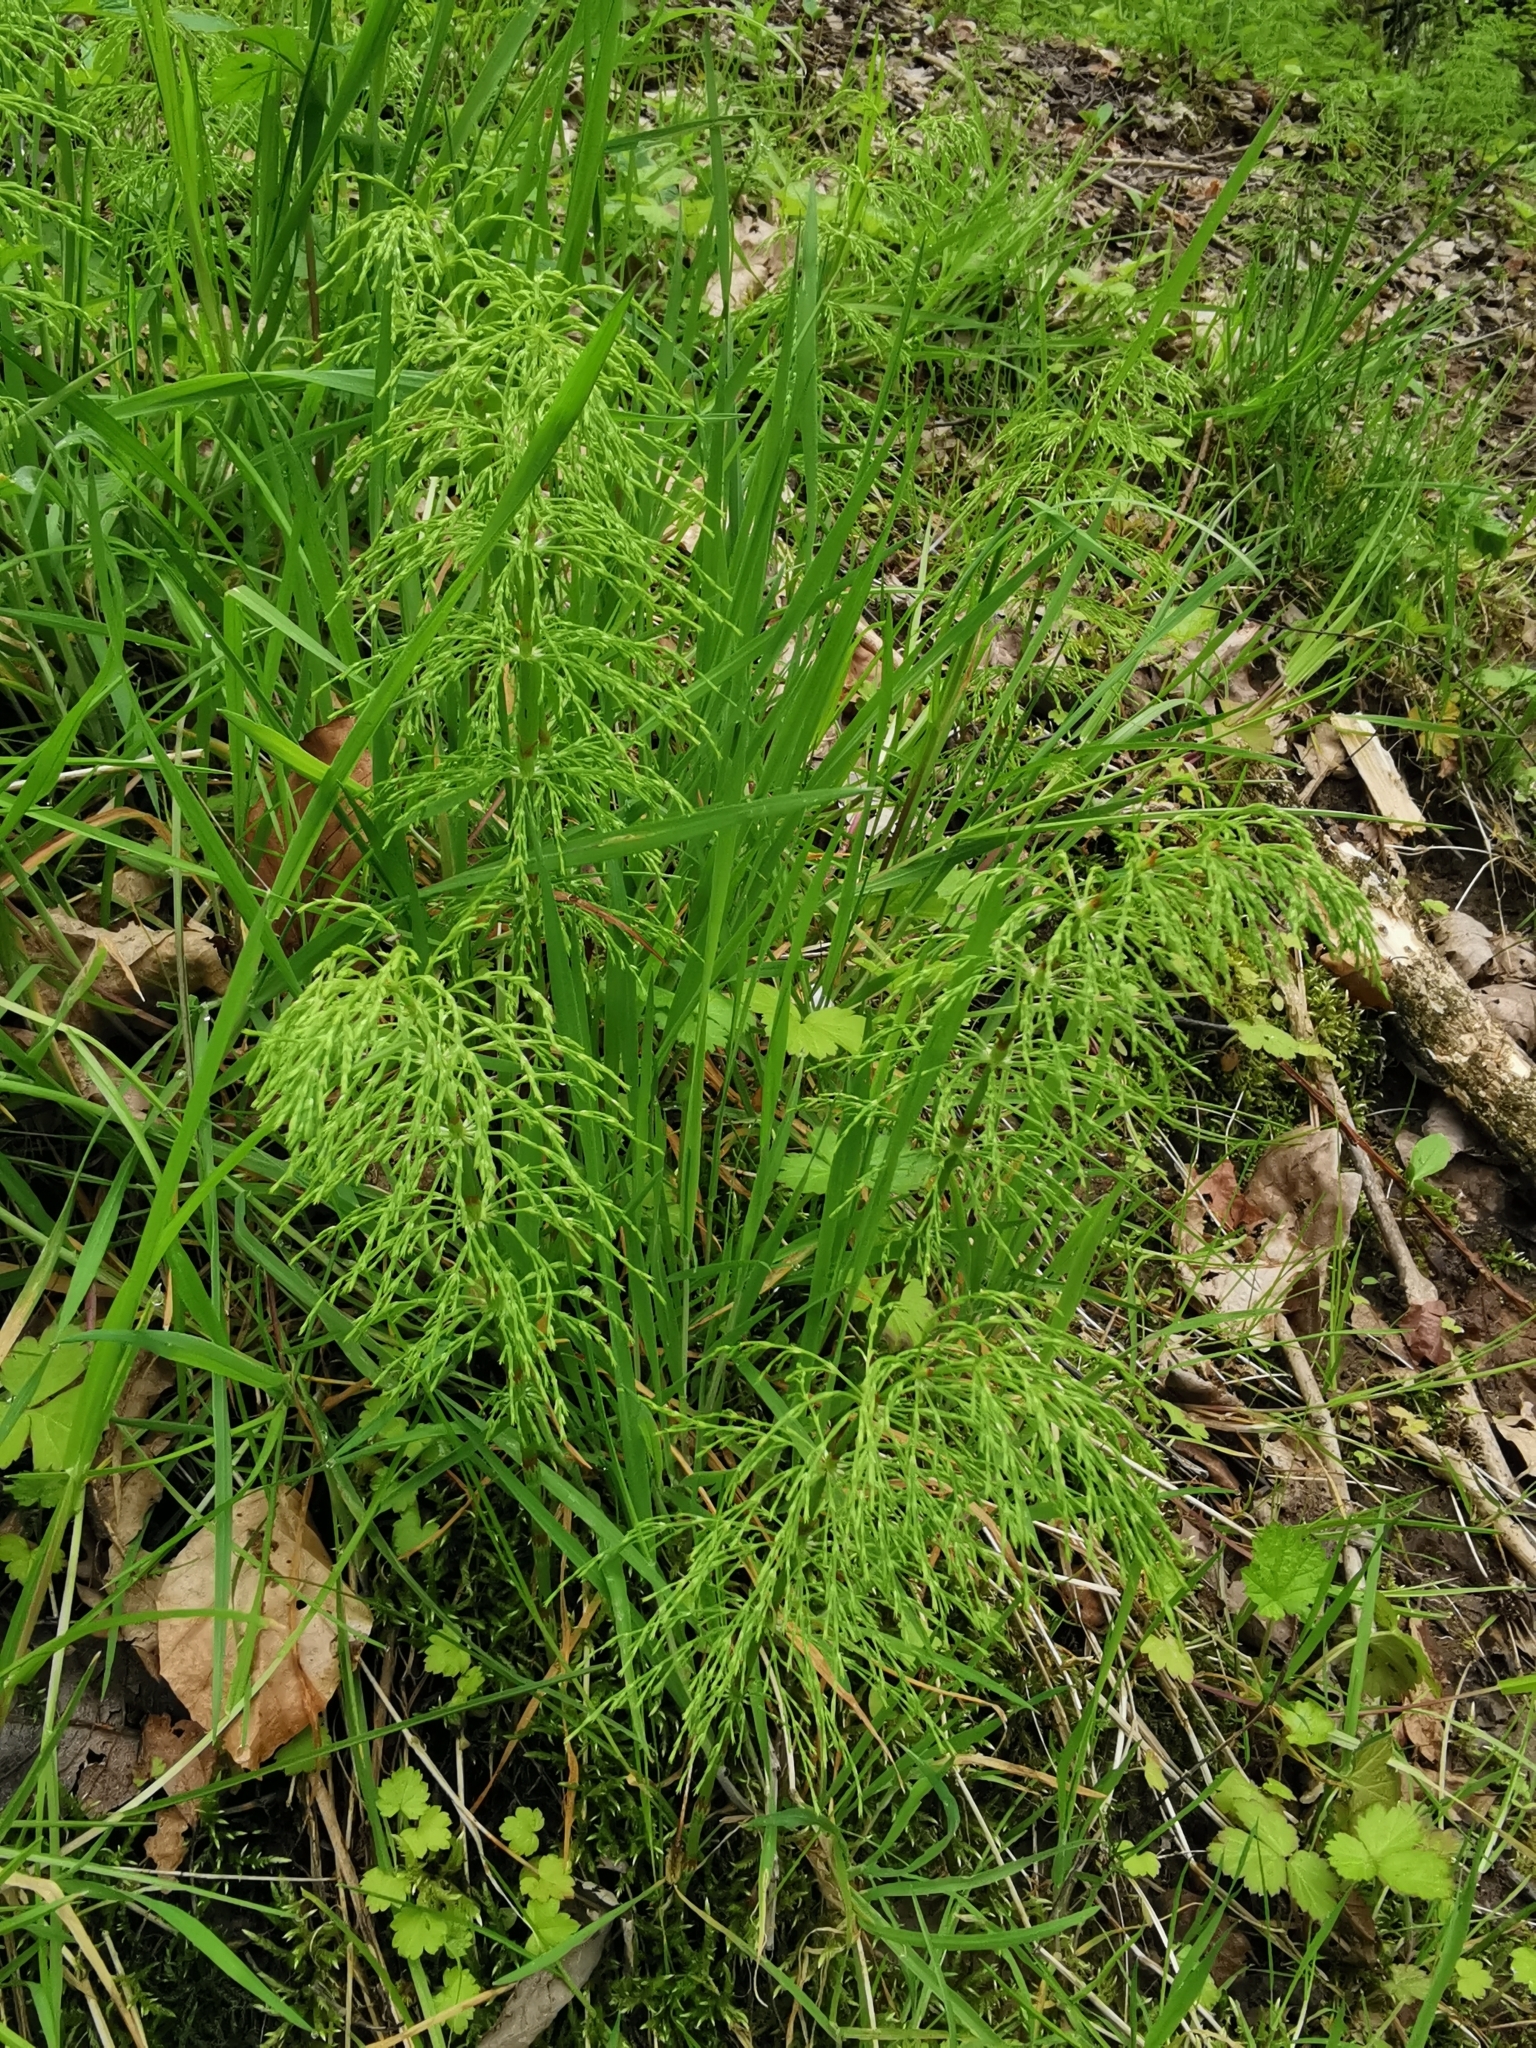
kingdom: Plantae
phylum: Tracheophyta
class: Polypodiopsida
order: Equisetales
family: Equisetaceae
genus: Equisetum
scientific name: Equisetum sylvaticum
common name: Wood horsetail
